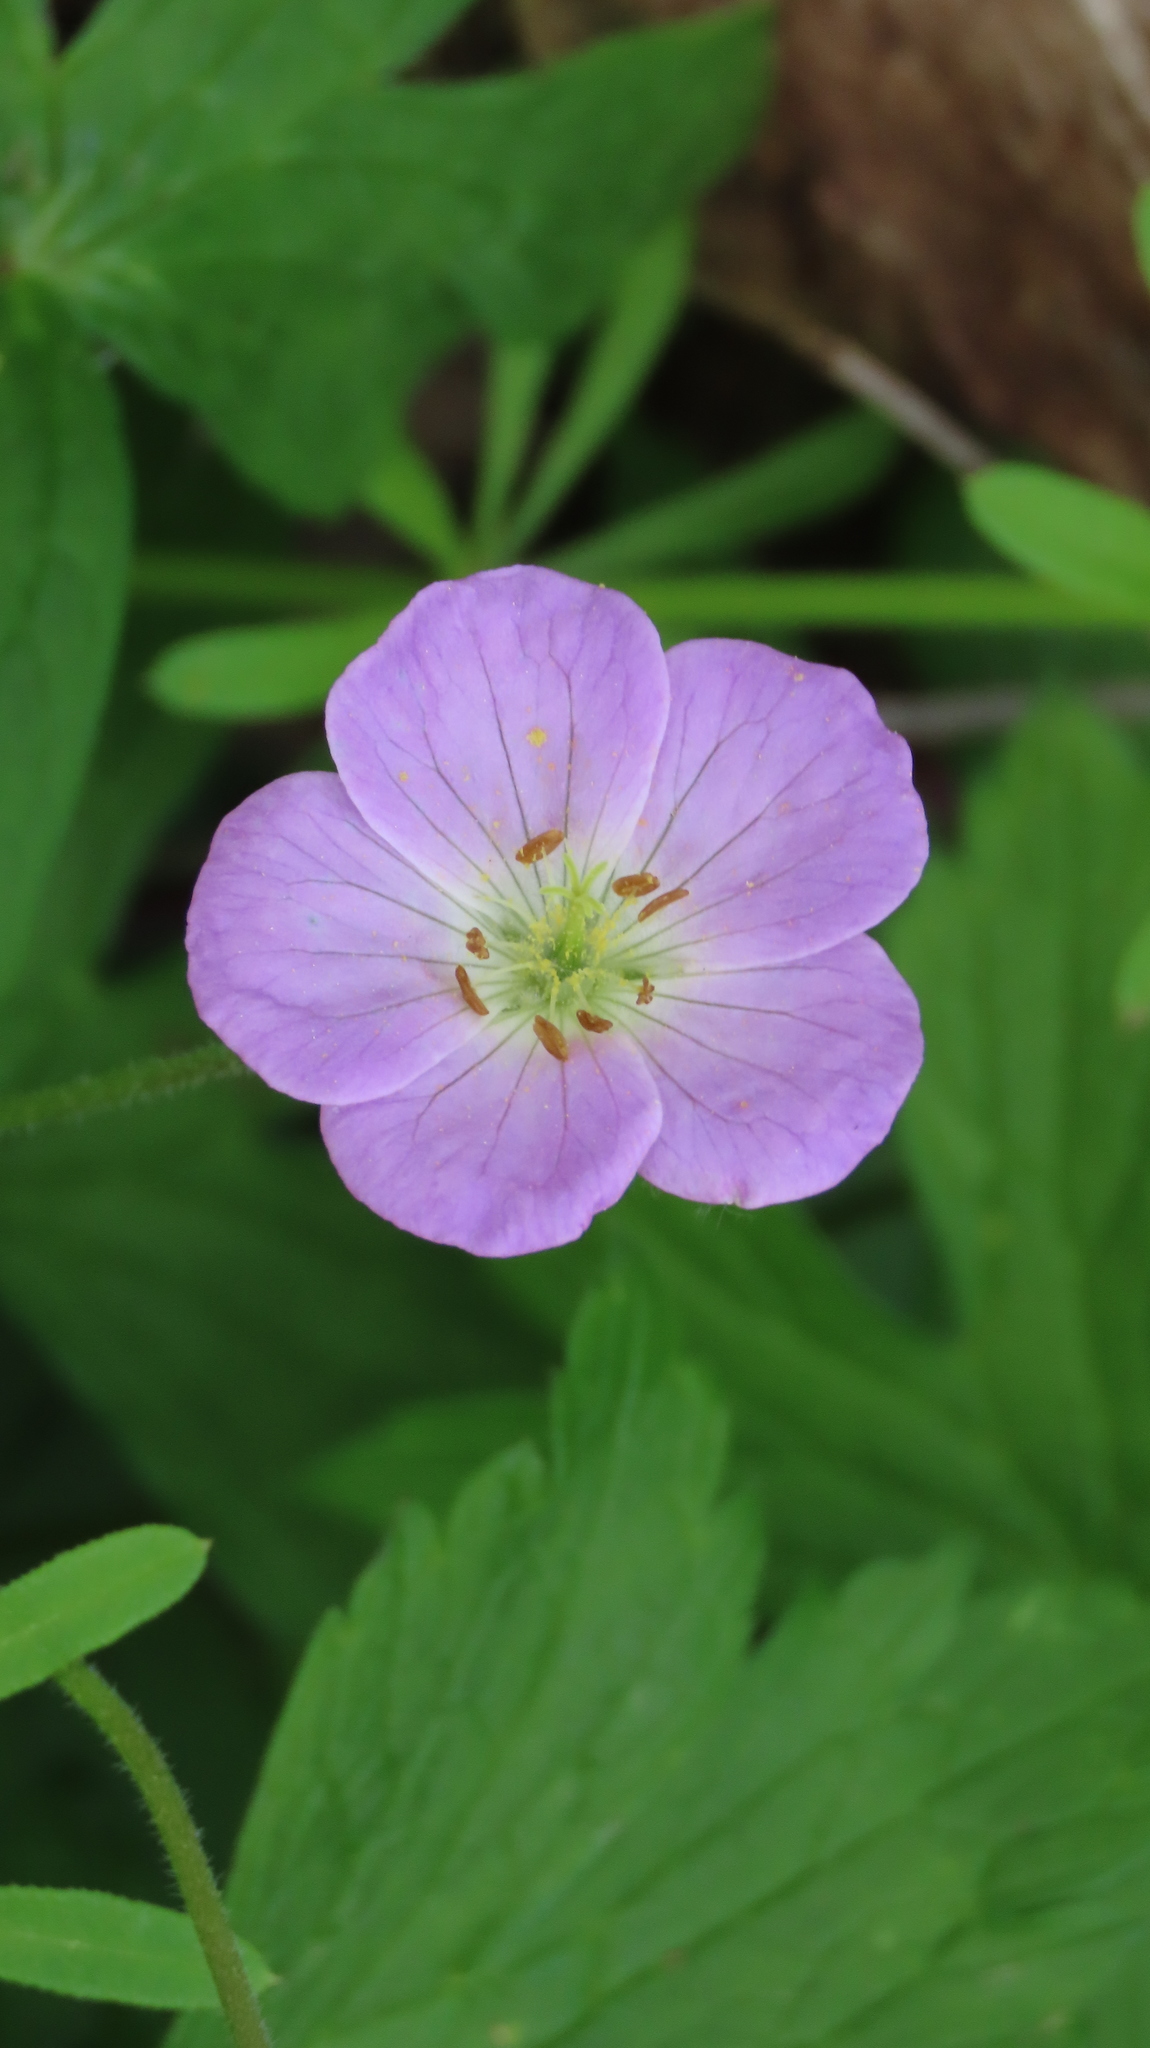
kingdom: Plantae
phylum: Tracheophyta
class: Magnoliopsida
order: Geraniales
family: Geraniaceae
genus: Geranium
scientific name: Geranium maculatum
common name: Spotted geranium
